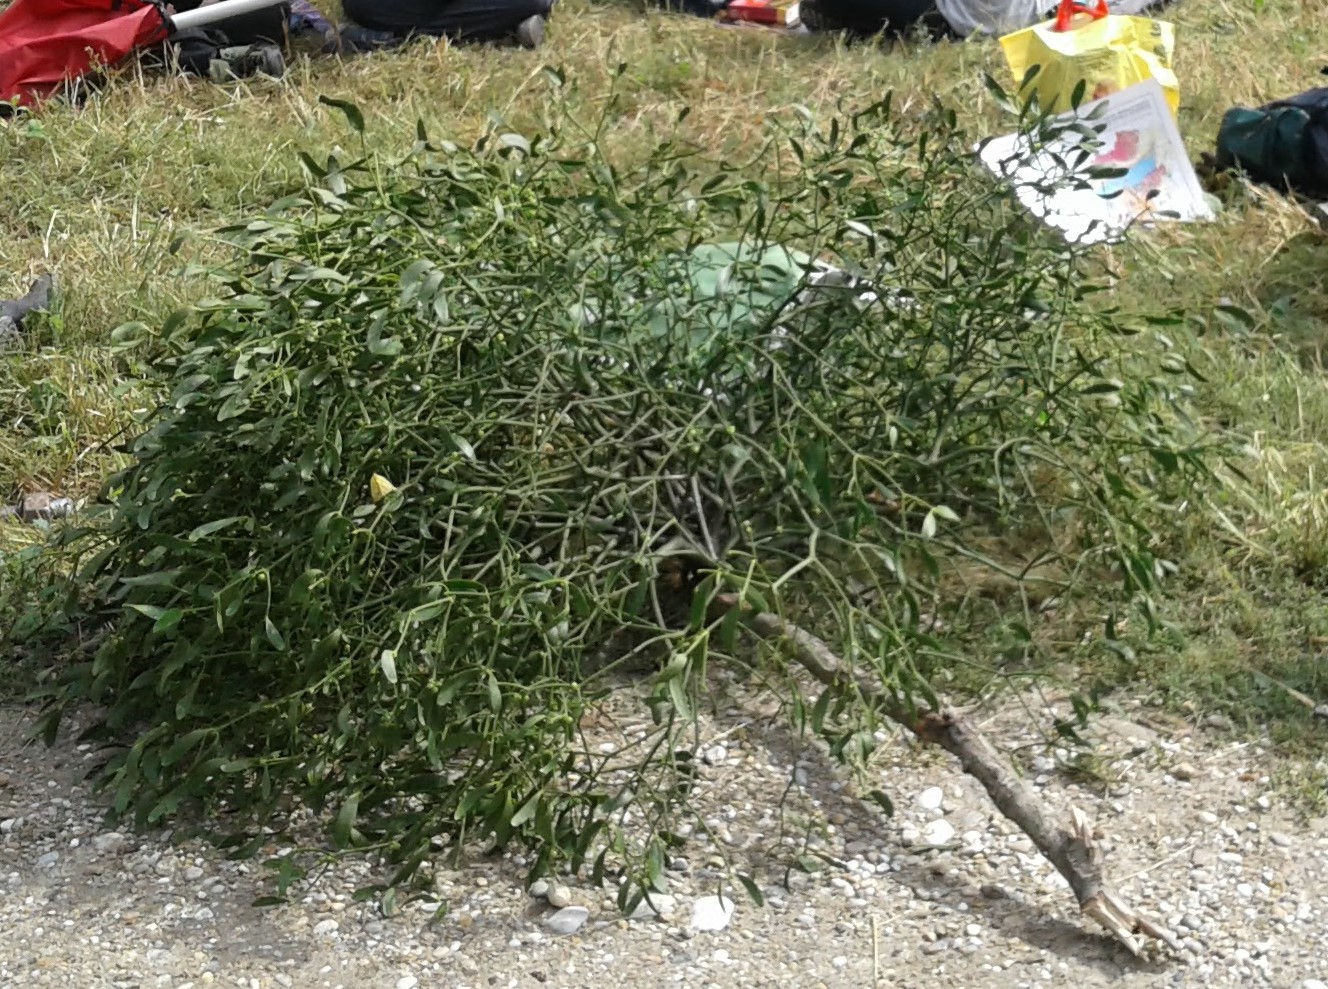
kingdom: Plantae
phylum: Tracheophyta
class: Magnoliopsida
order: Santalales
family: Viscaceae
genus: Viscum
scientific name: Viscum album
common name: Mistletoe
